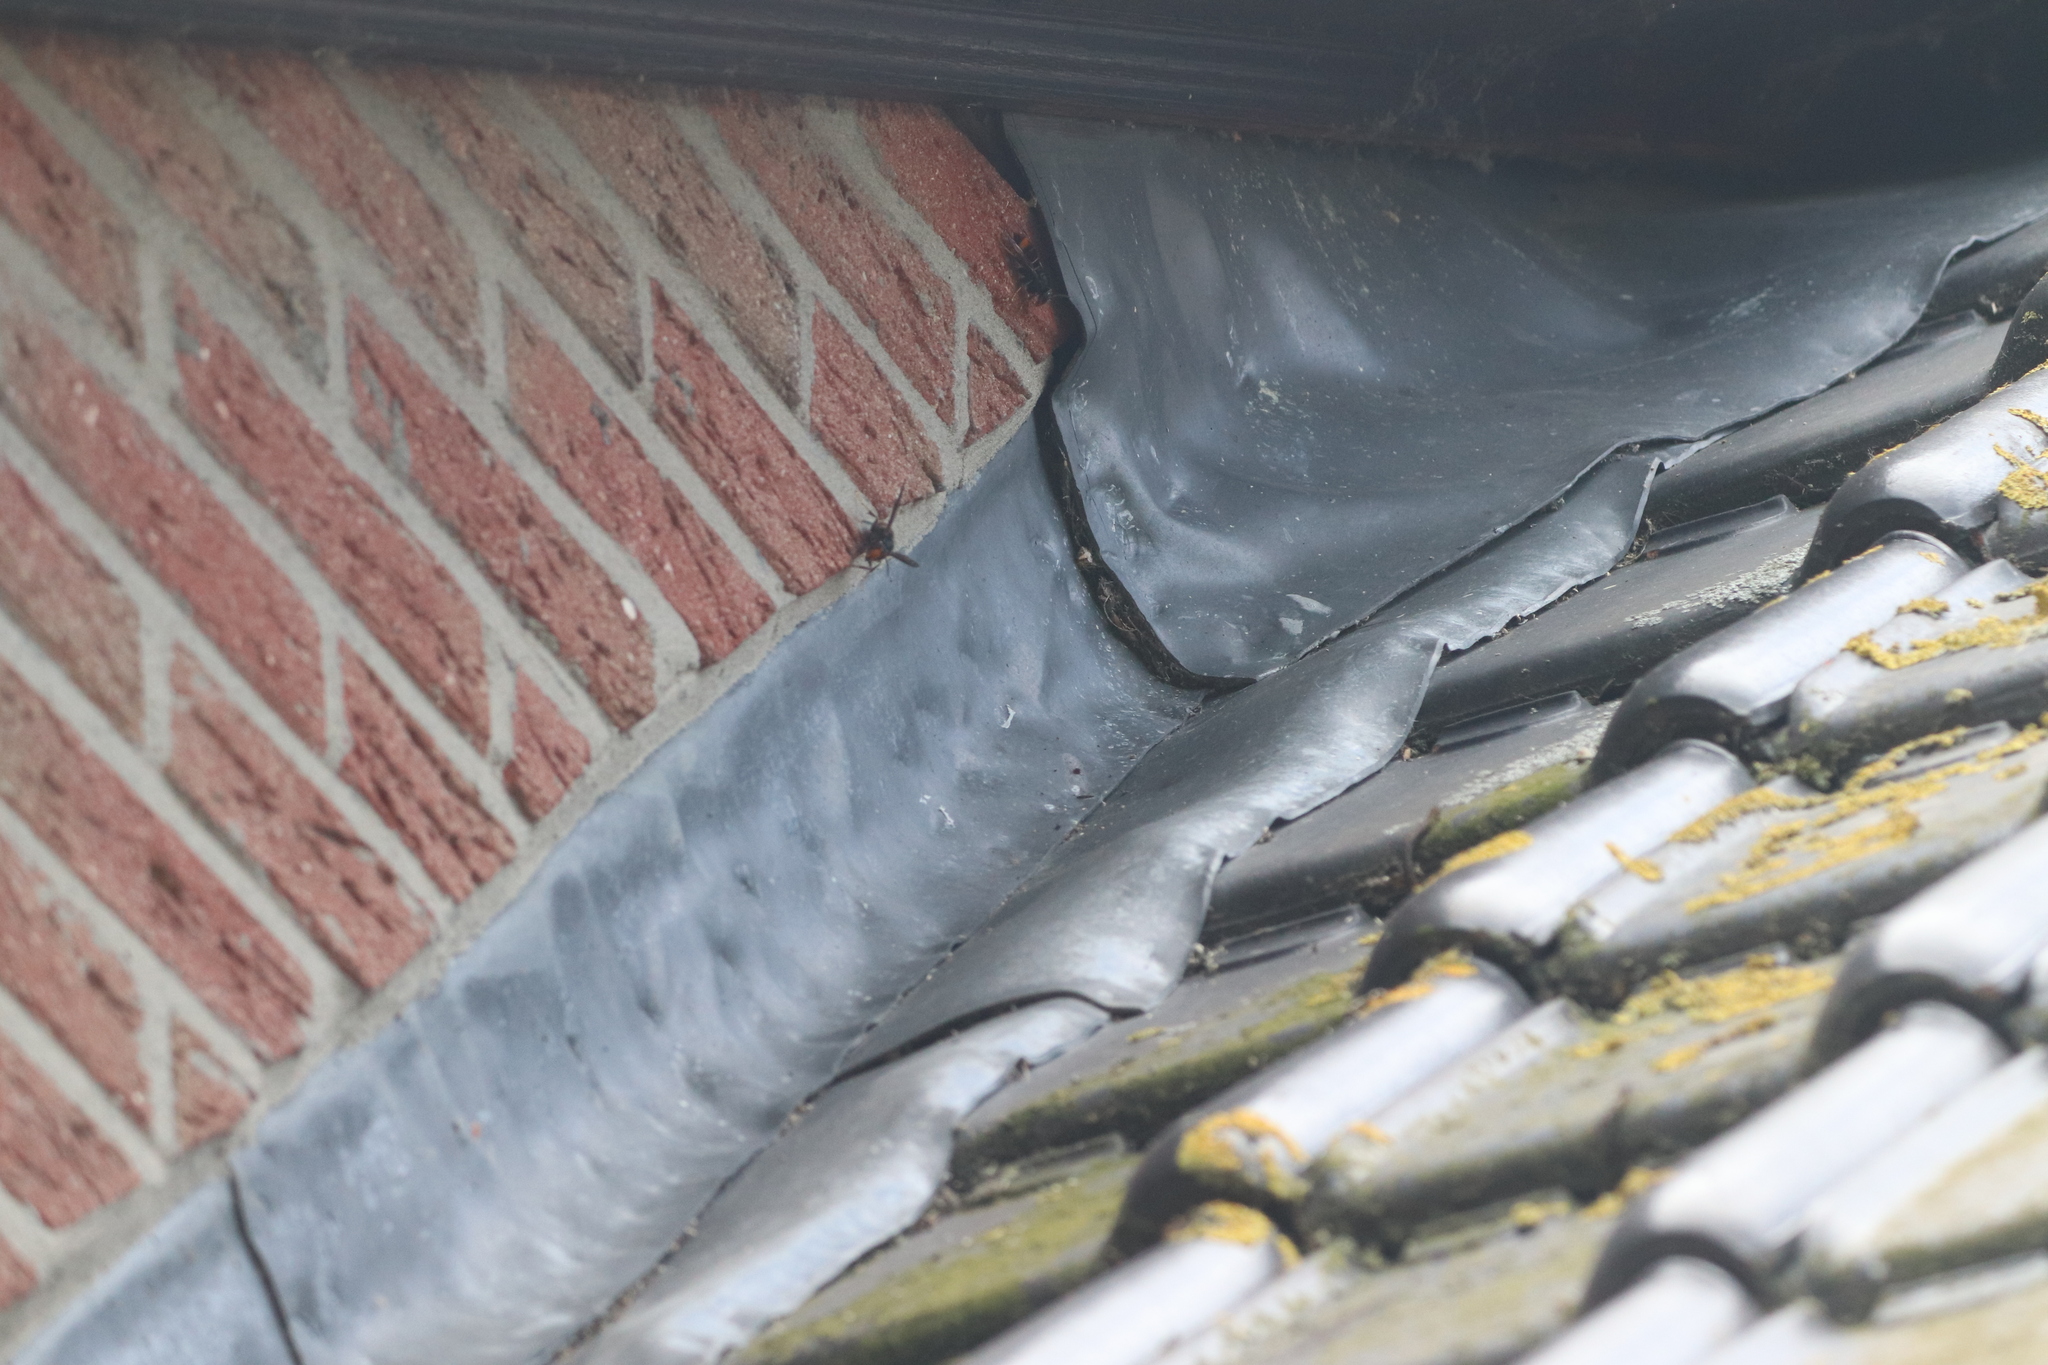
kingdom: Animalia
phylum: Arthropoda
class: Insecta
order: Hymenoptera
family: Vespidae
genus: Vespa
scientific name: Vespa velutina
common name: Asian hornet
